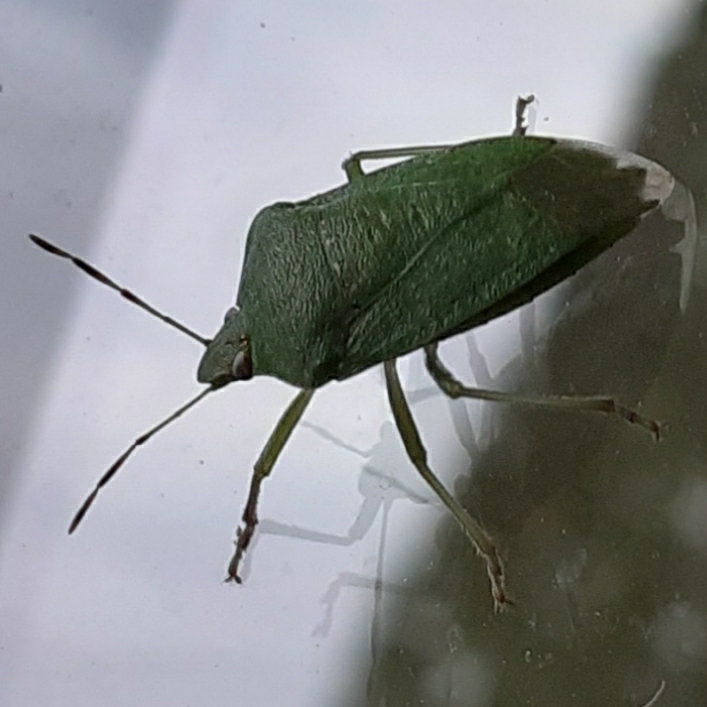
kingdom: Animalia
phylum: Arthropoda
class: Insecta
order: Hemiptera
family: Pentatomidae
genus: Nezara
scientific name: Nezara viridula
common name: Southern green stink bug
